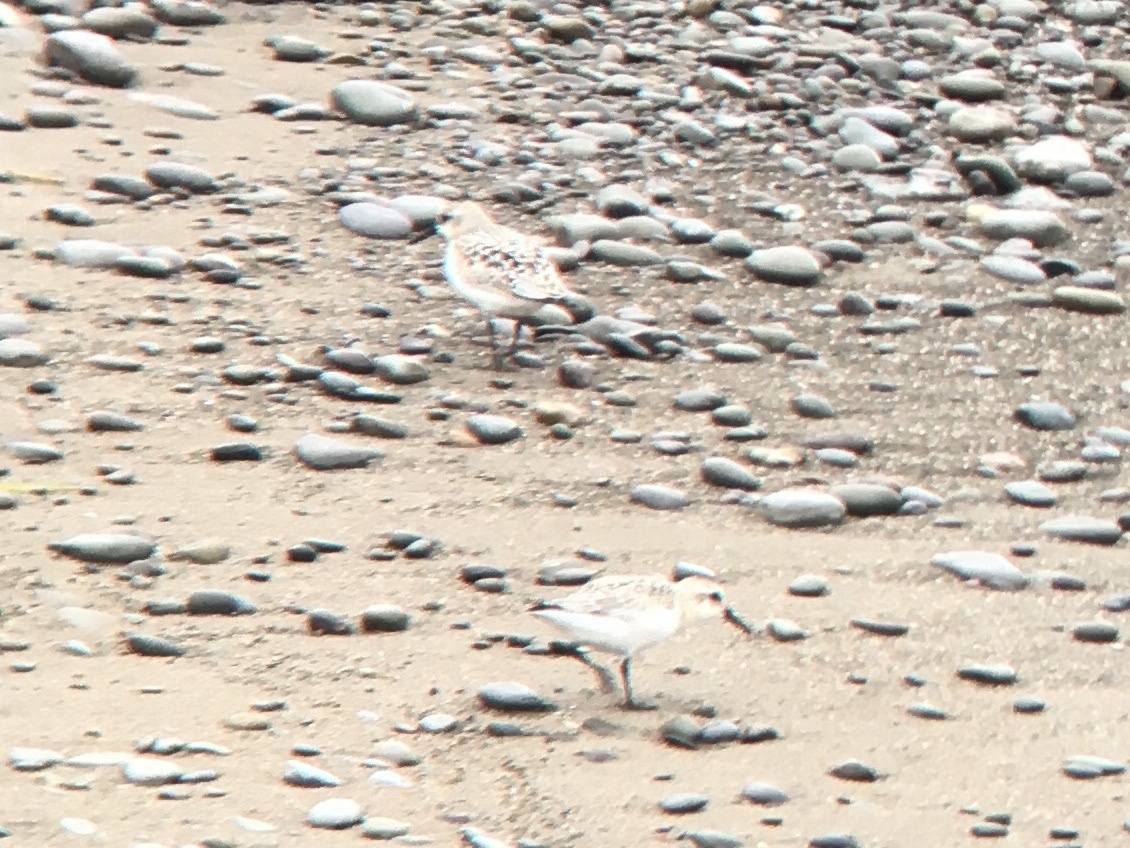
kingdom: Animalia
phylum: Chordata
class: Aves
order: Charadriiformes
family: Scolopacidae
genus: Calidris
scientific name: Calidris alba
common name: Sanderling
